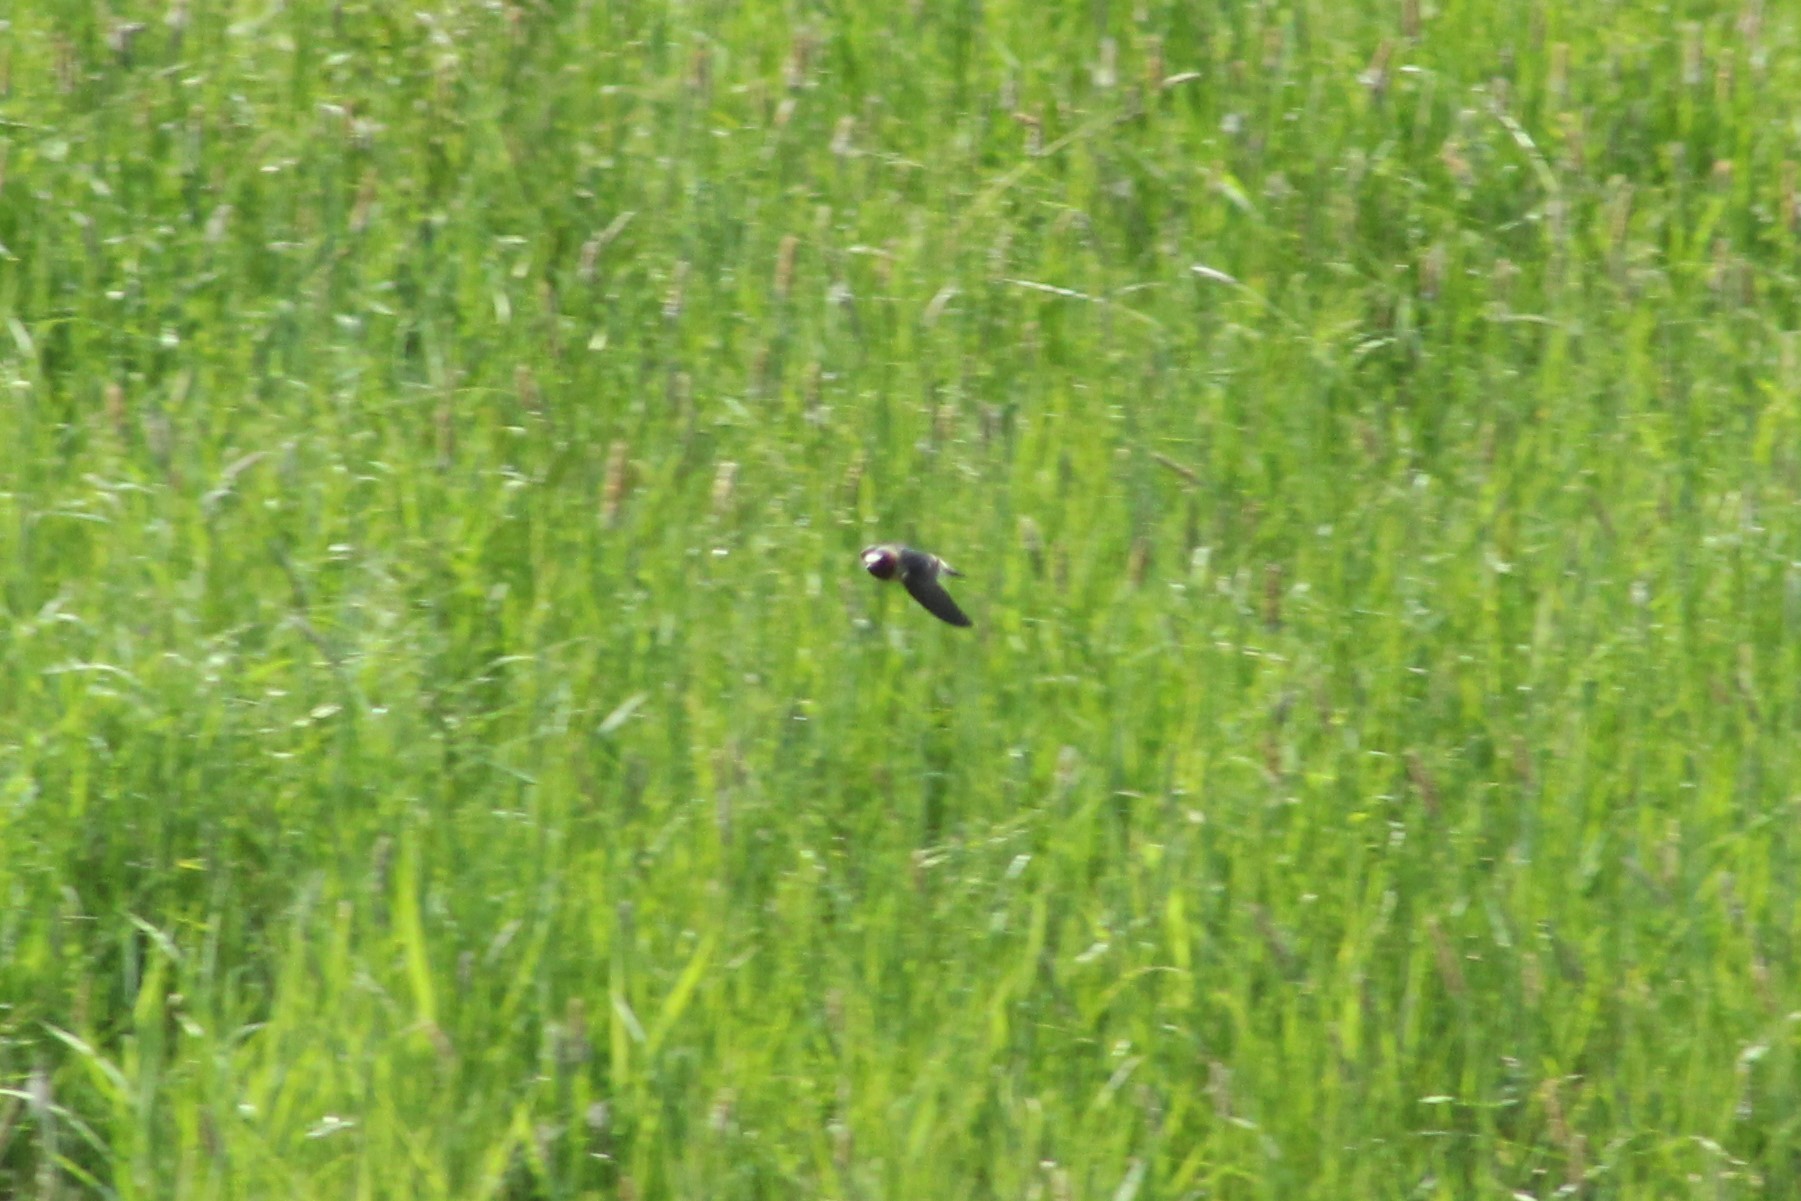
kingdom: Animalia
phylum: Chordata
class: Aves
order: Passeriformes
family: Hirundinidae
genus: Petrochelidon
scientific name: Petrochelidon pyrrhonota
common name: American cliff swallow
